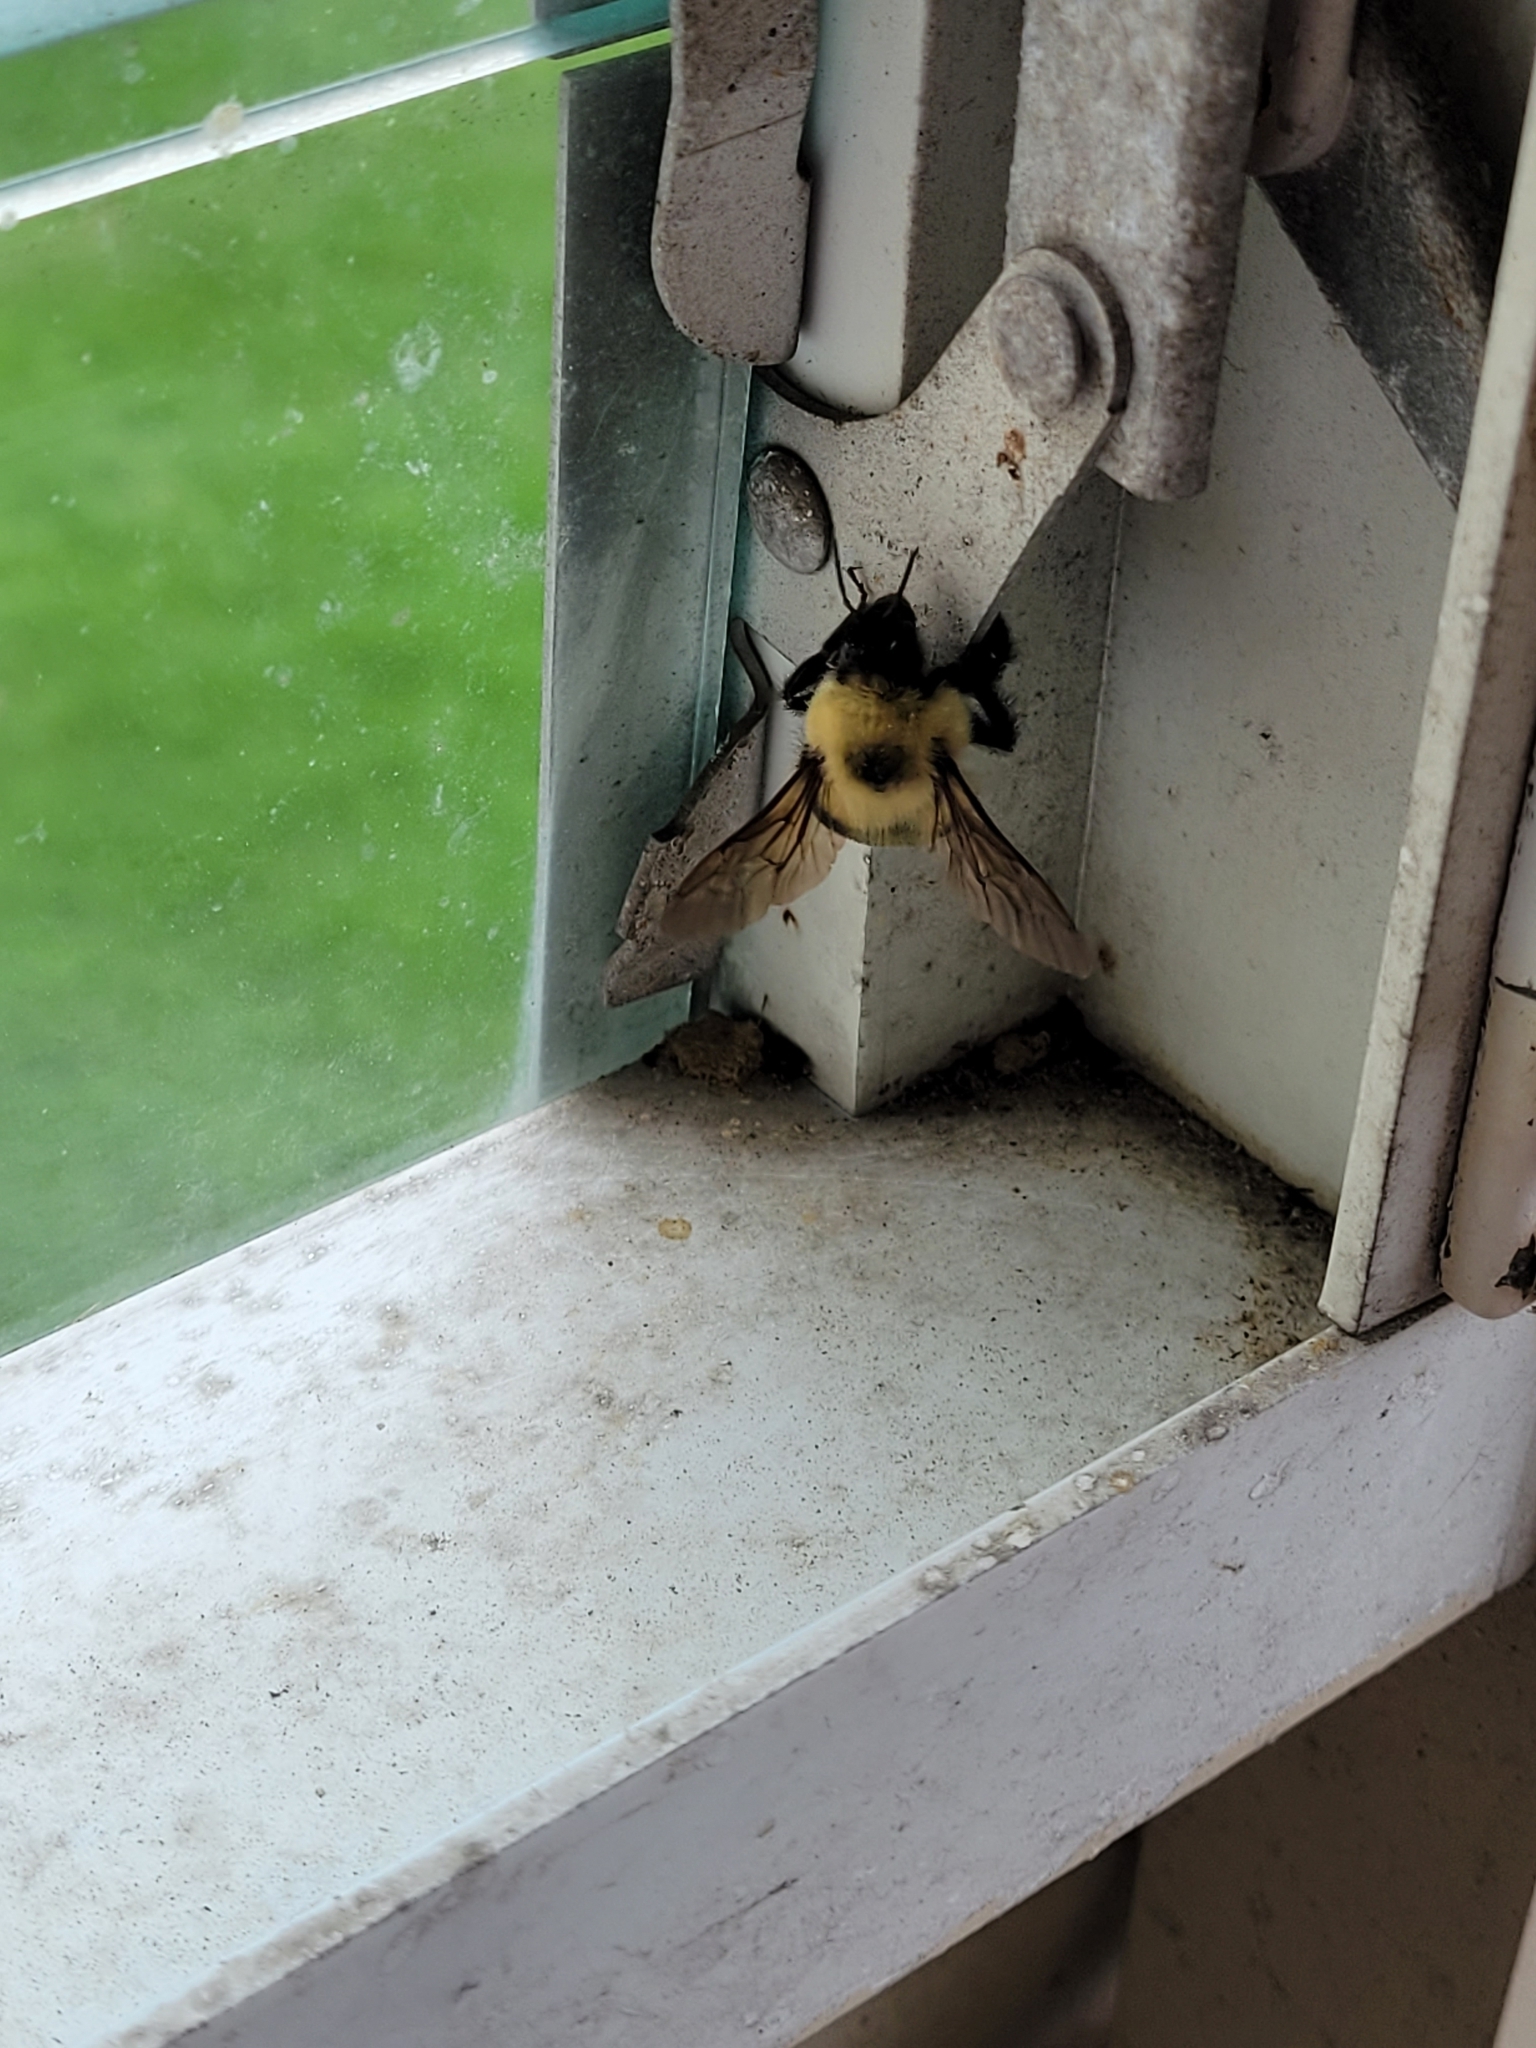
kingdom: Animalia
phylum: Arthropoda
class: Insecta
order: Hymenoptera
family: Apidae
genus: Bombus
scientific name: Bombus bimaculatus
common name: Two-spotted bumble bee
